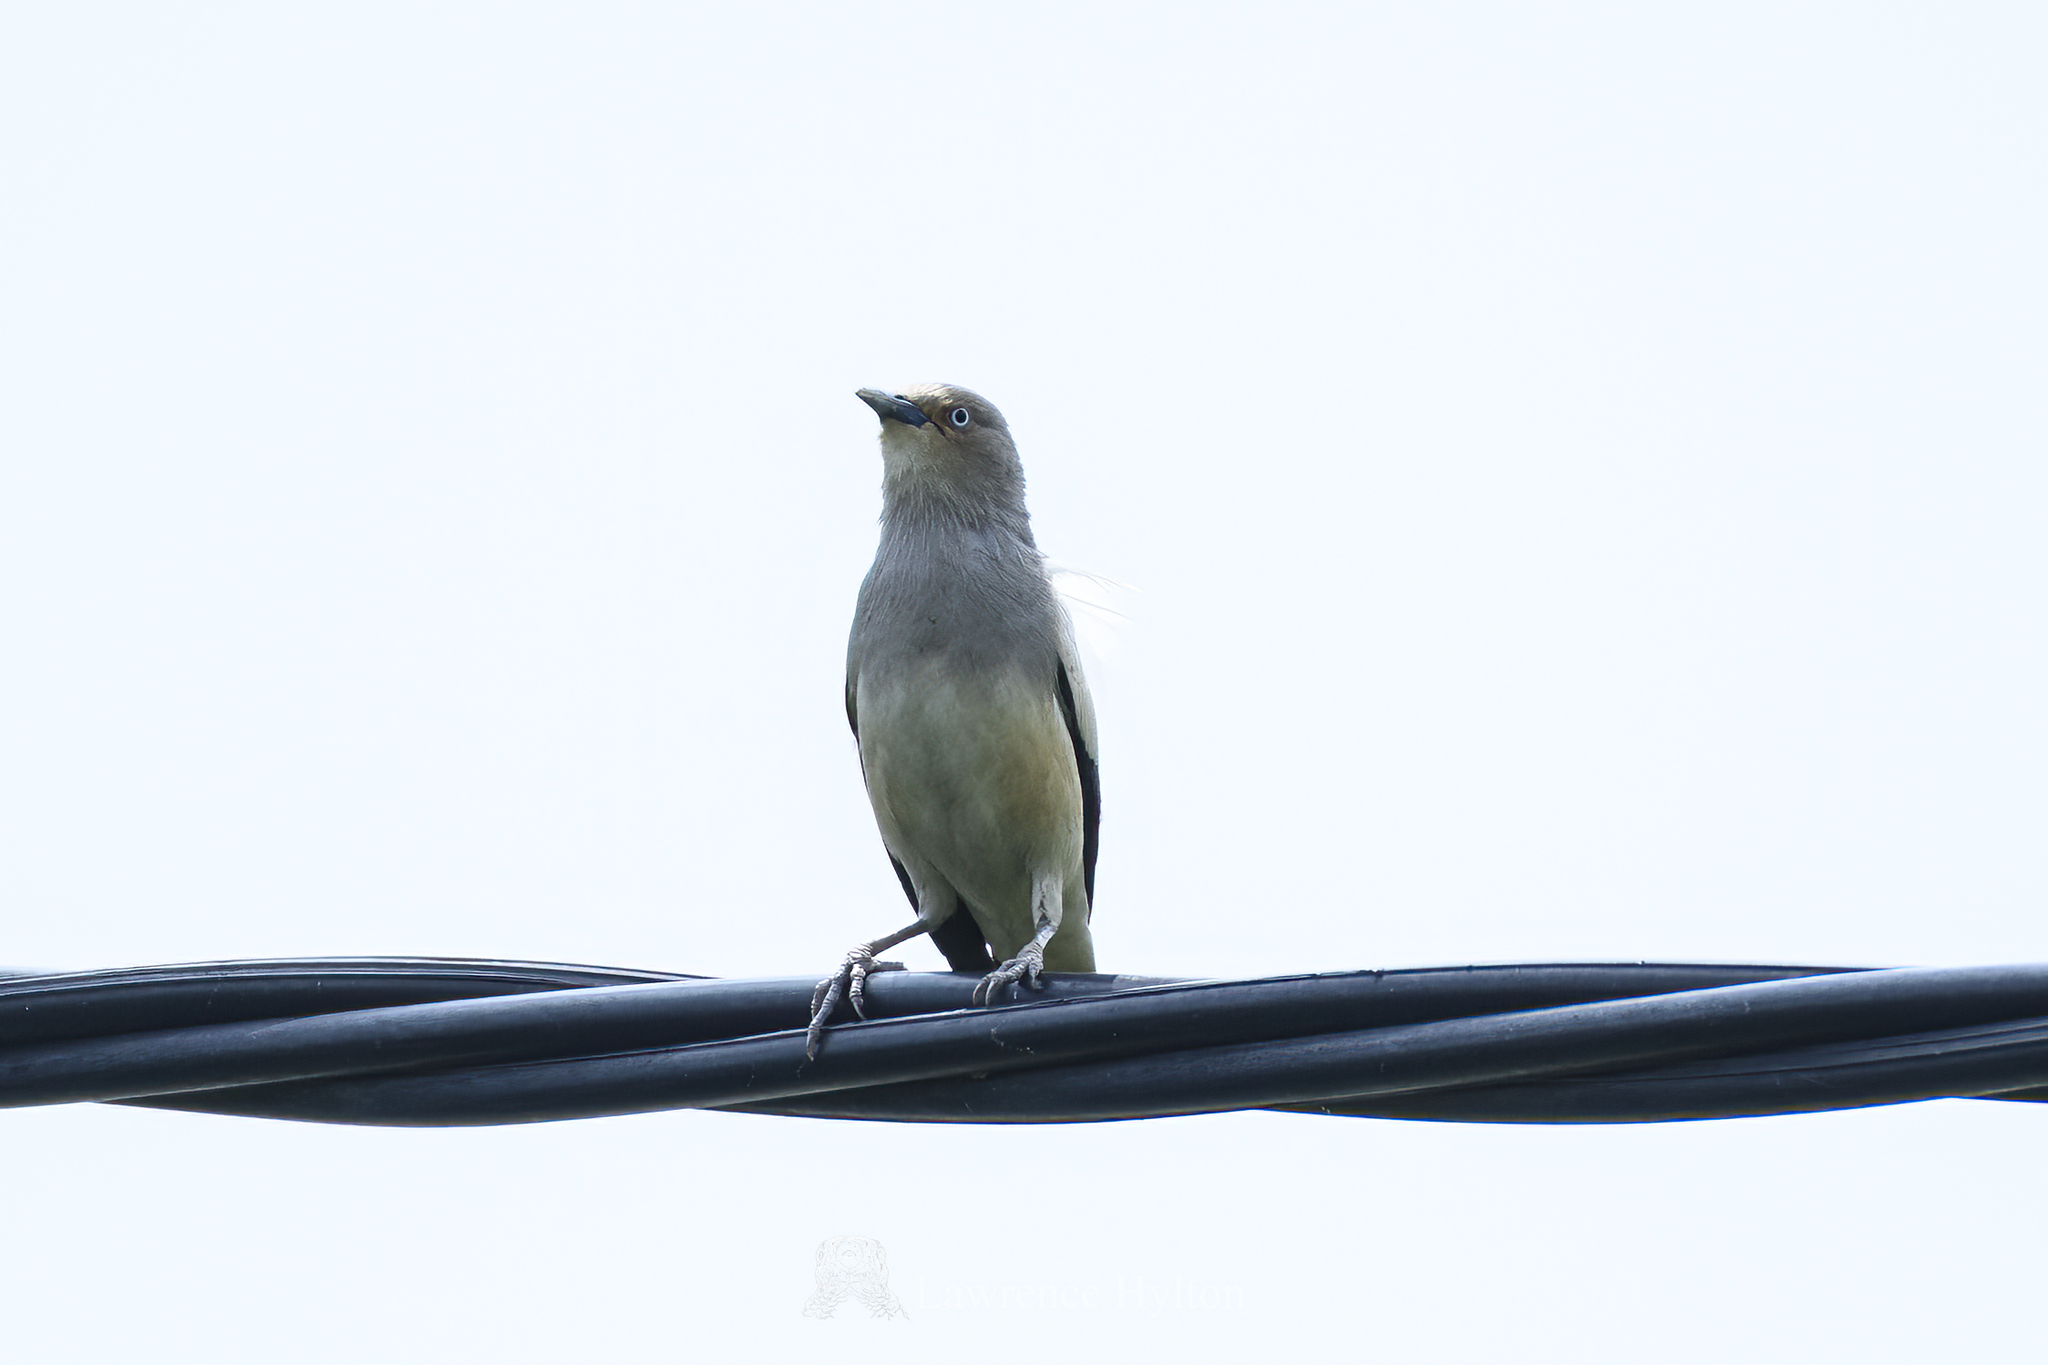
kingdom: Animalia
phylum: Chordata
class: Aves
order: Passeriformes
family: Sturnidae
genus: Sturnia
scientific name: Sturnia sinensis
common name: White-shouldered starling
